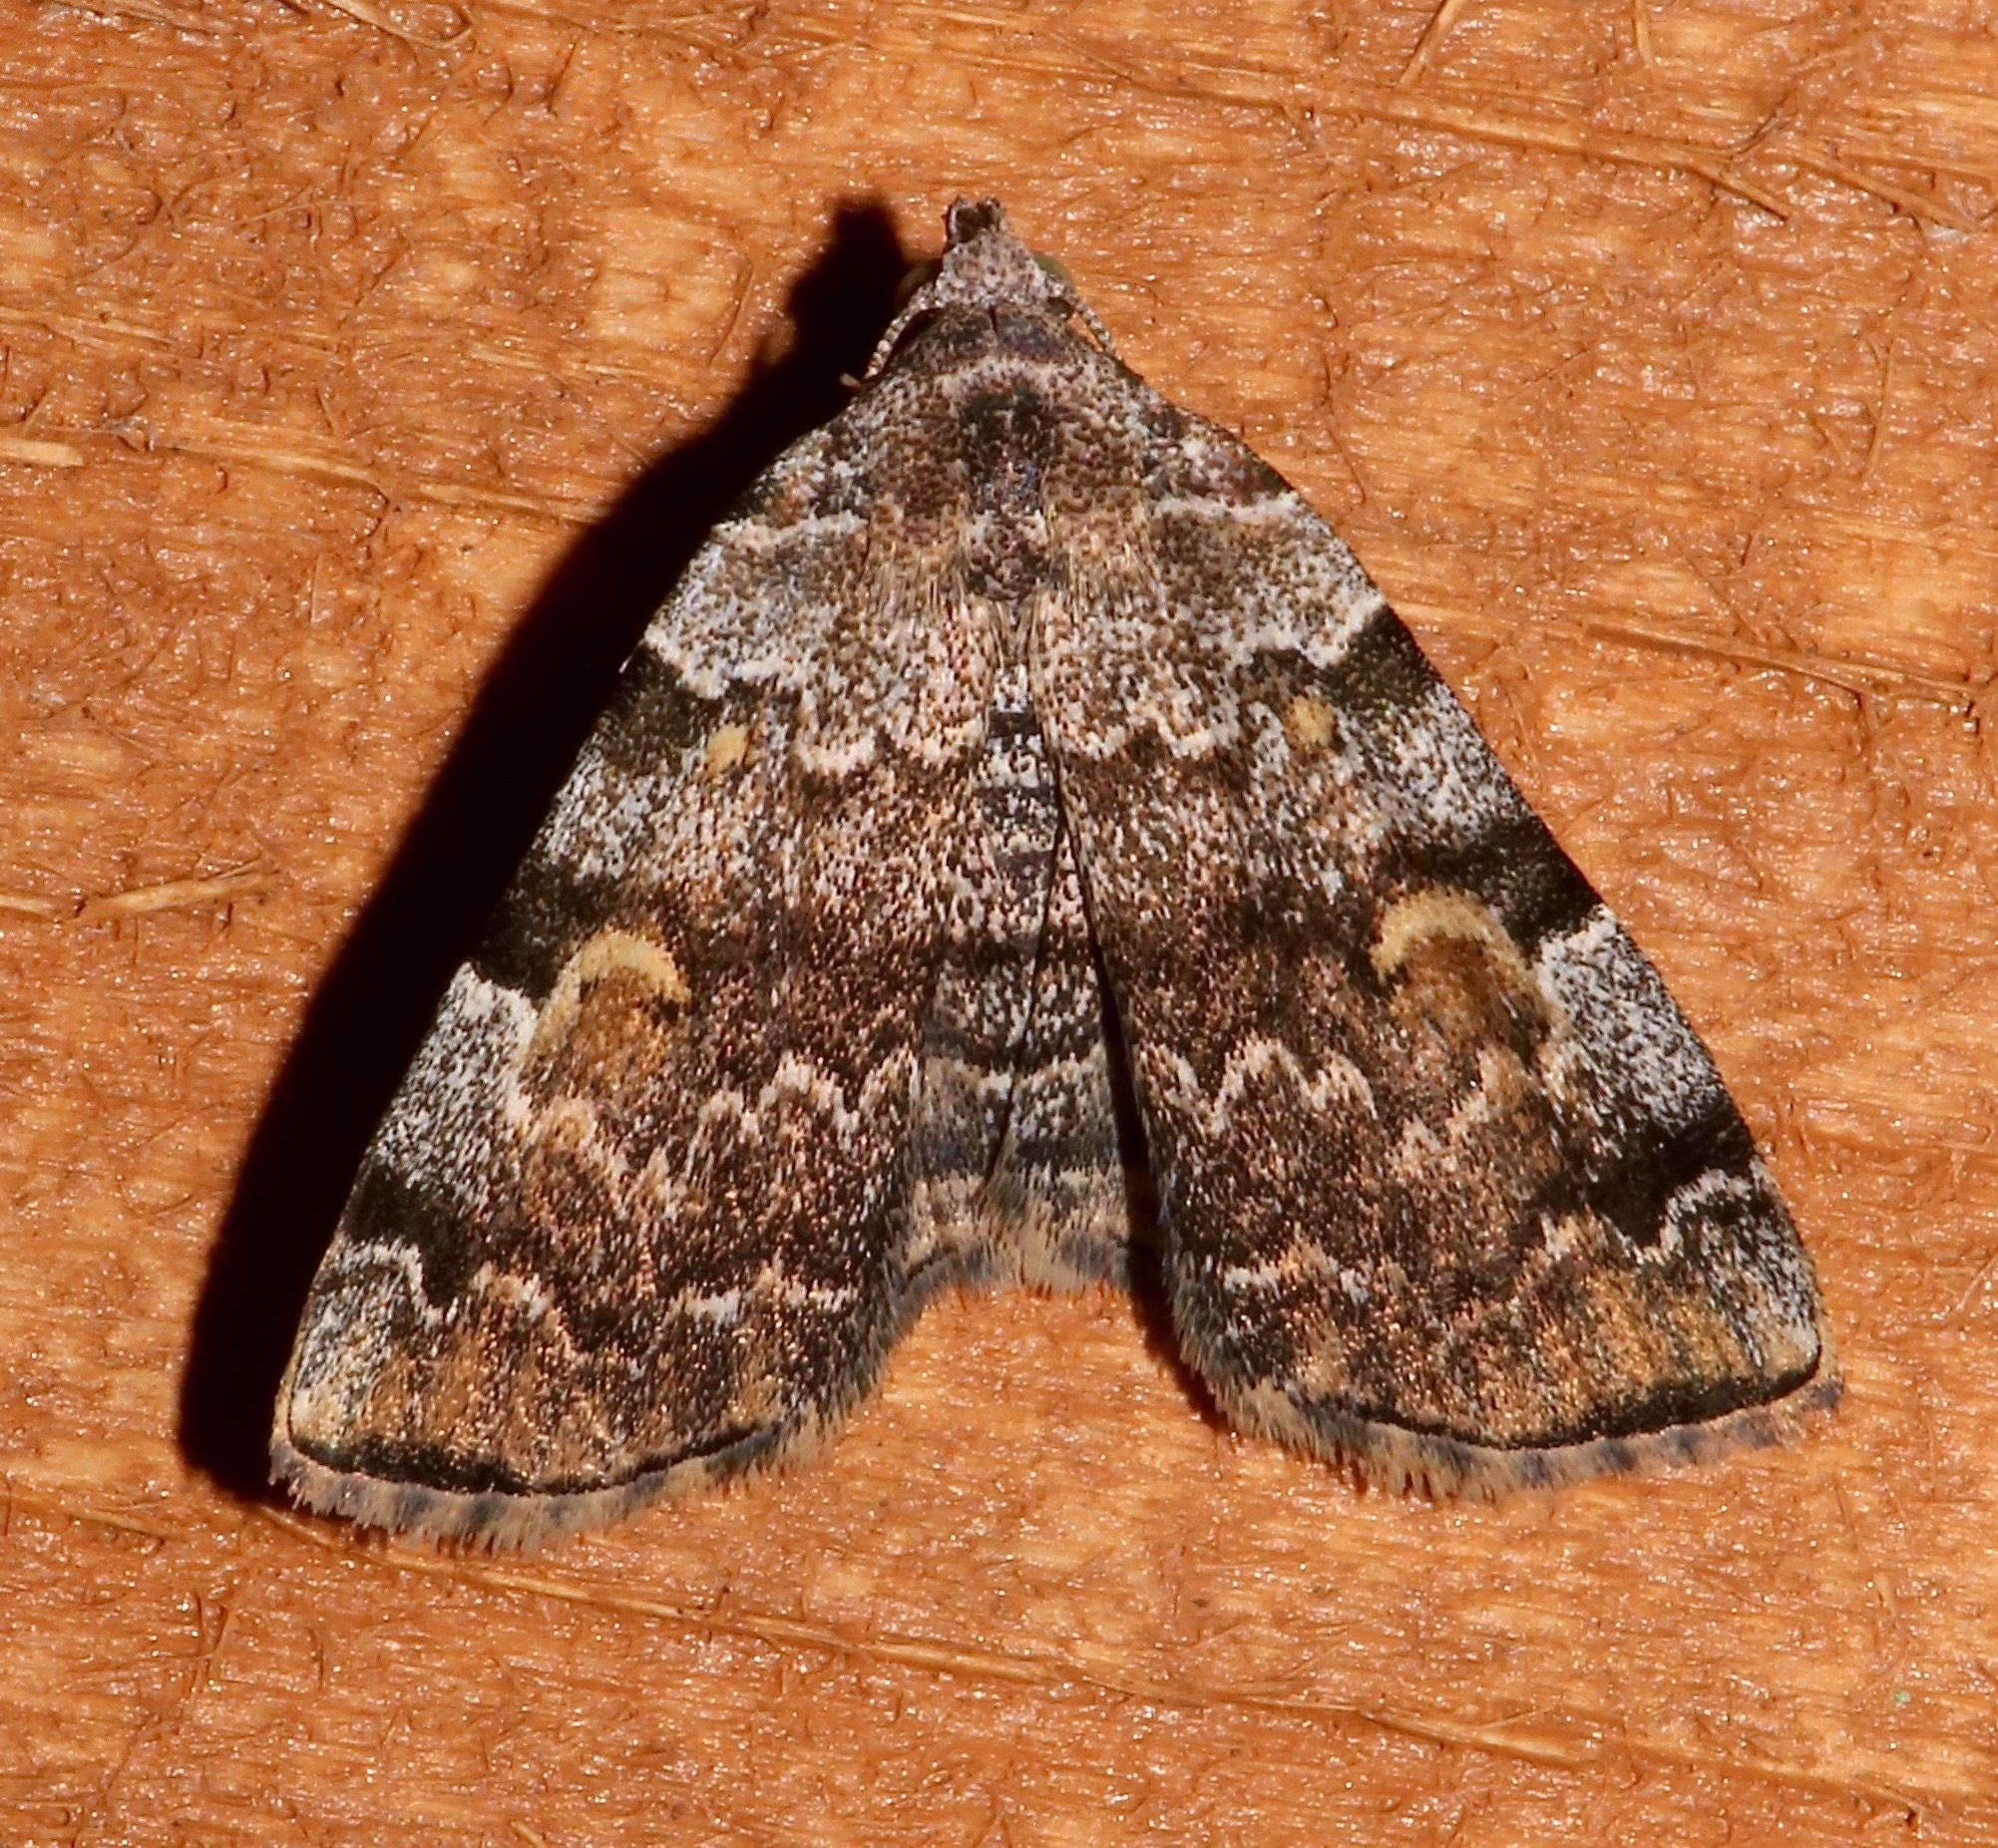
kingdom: Animalia
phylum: Arthropoda
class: Insecta
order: Lepidoptera
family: Erebidae
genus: Idia
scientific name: Idia americalis
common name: American idia moth
